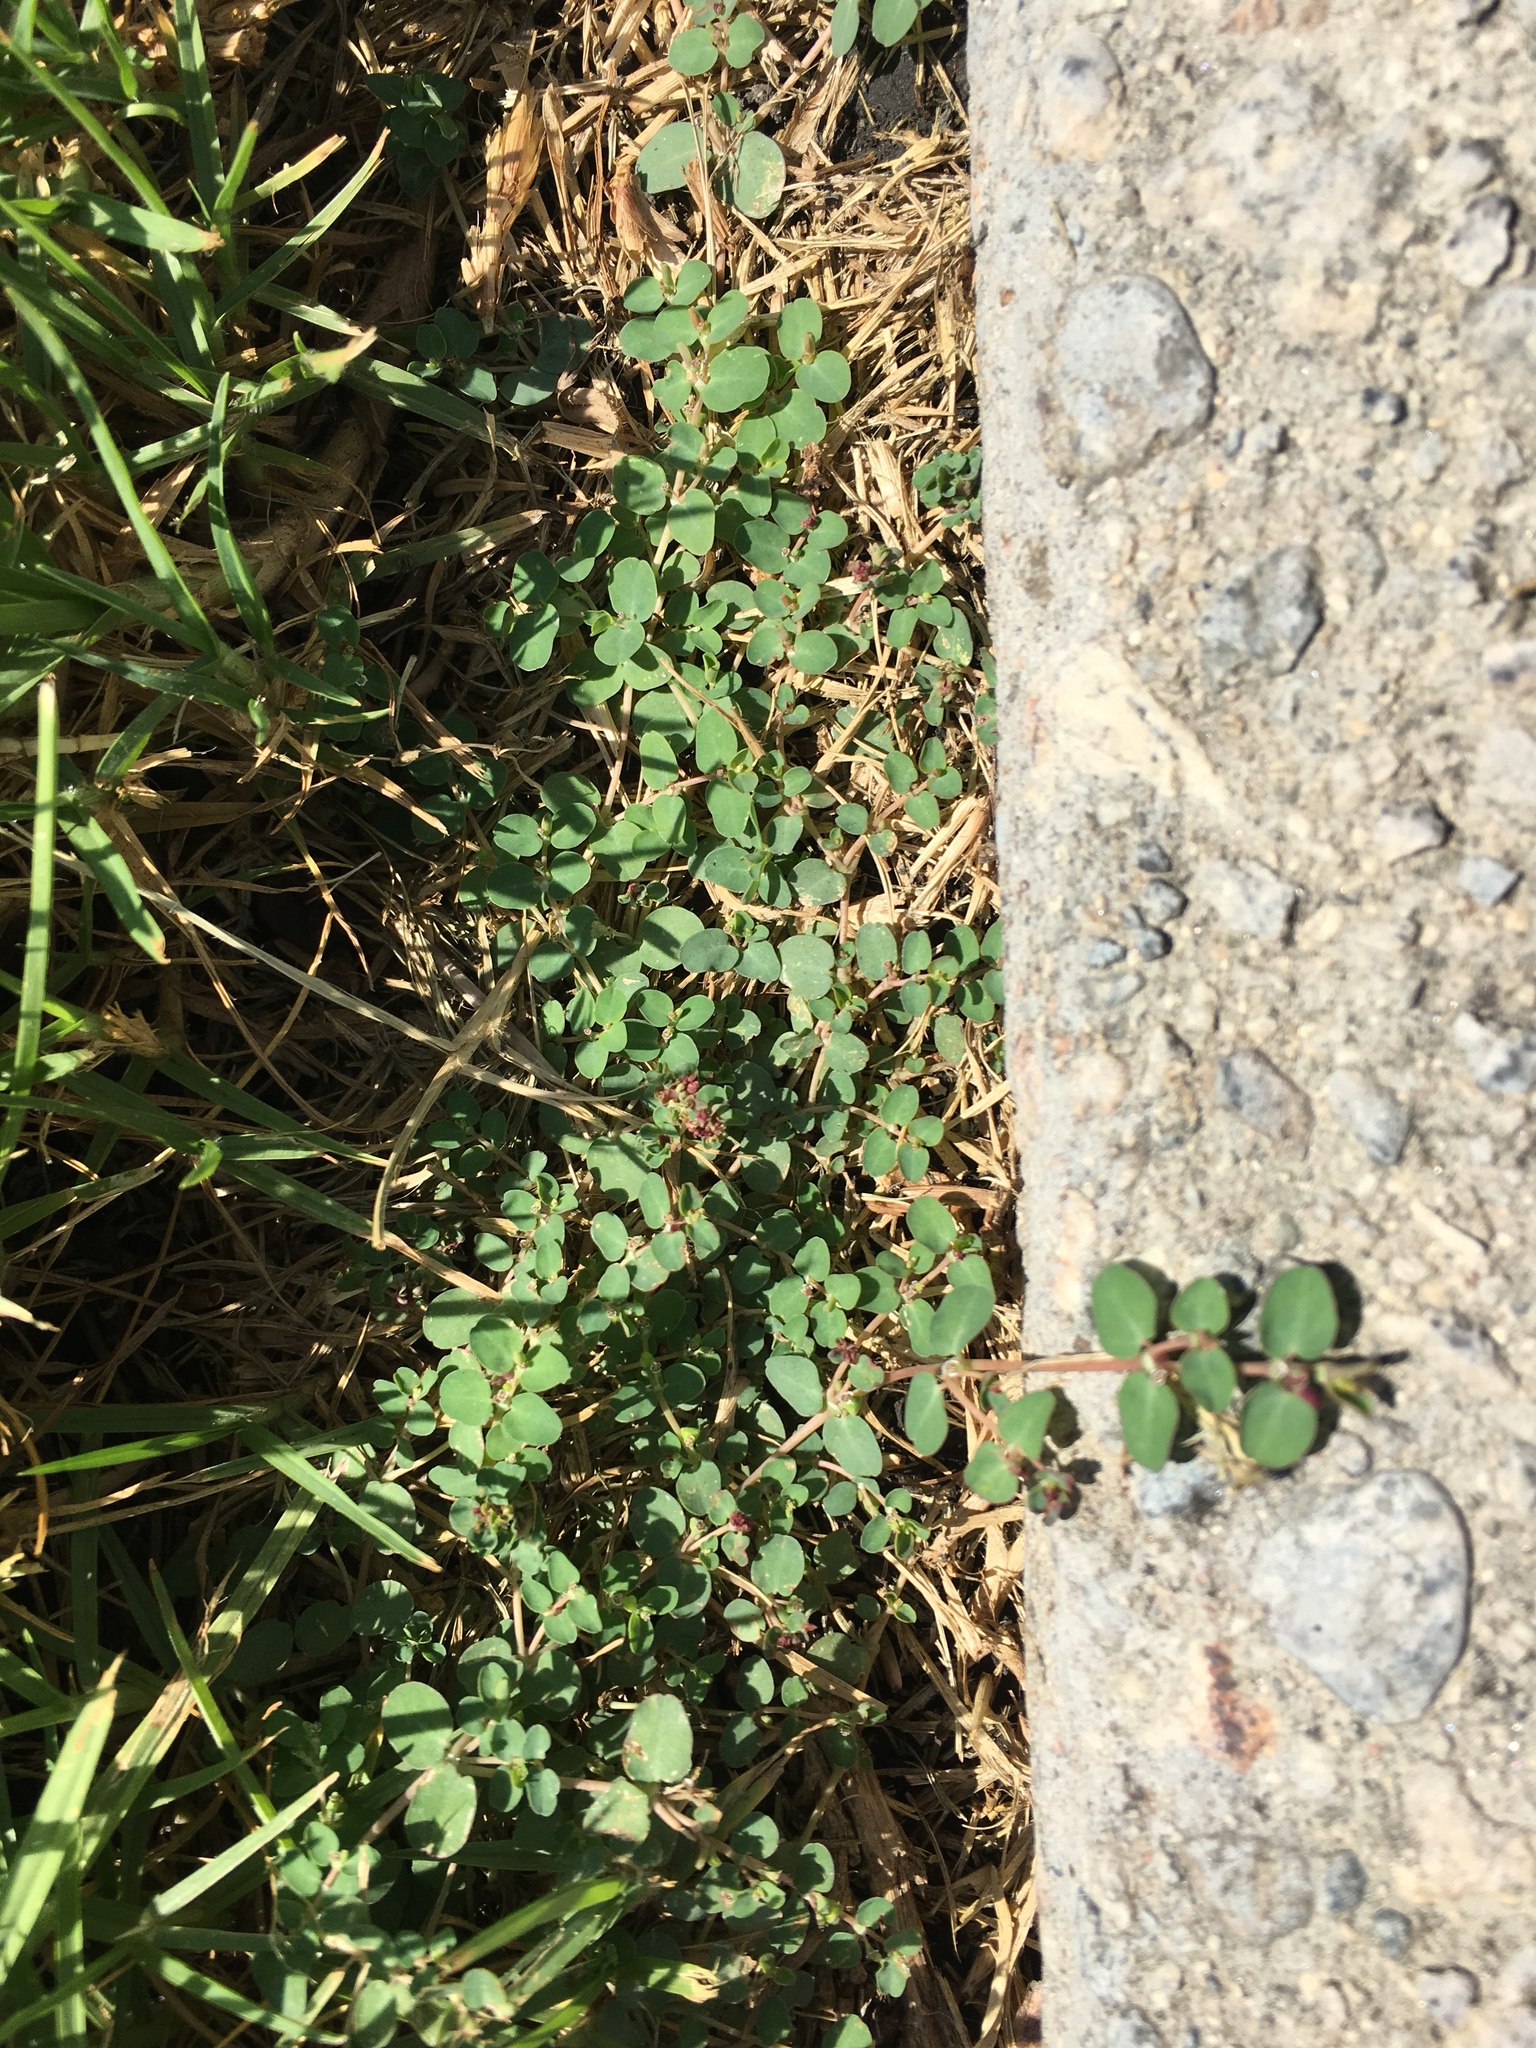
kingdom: Plantae
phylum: Tracheophyta
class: Magnoliopsida
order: Malpighiales
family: Euphorbiaceae
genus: Euphorbia
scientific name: Euphorbia serpens
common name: Matted sandmat
